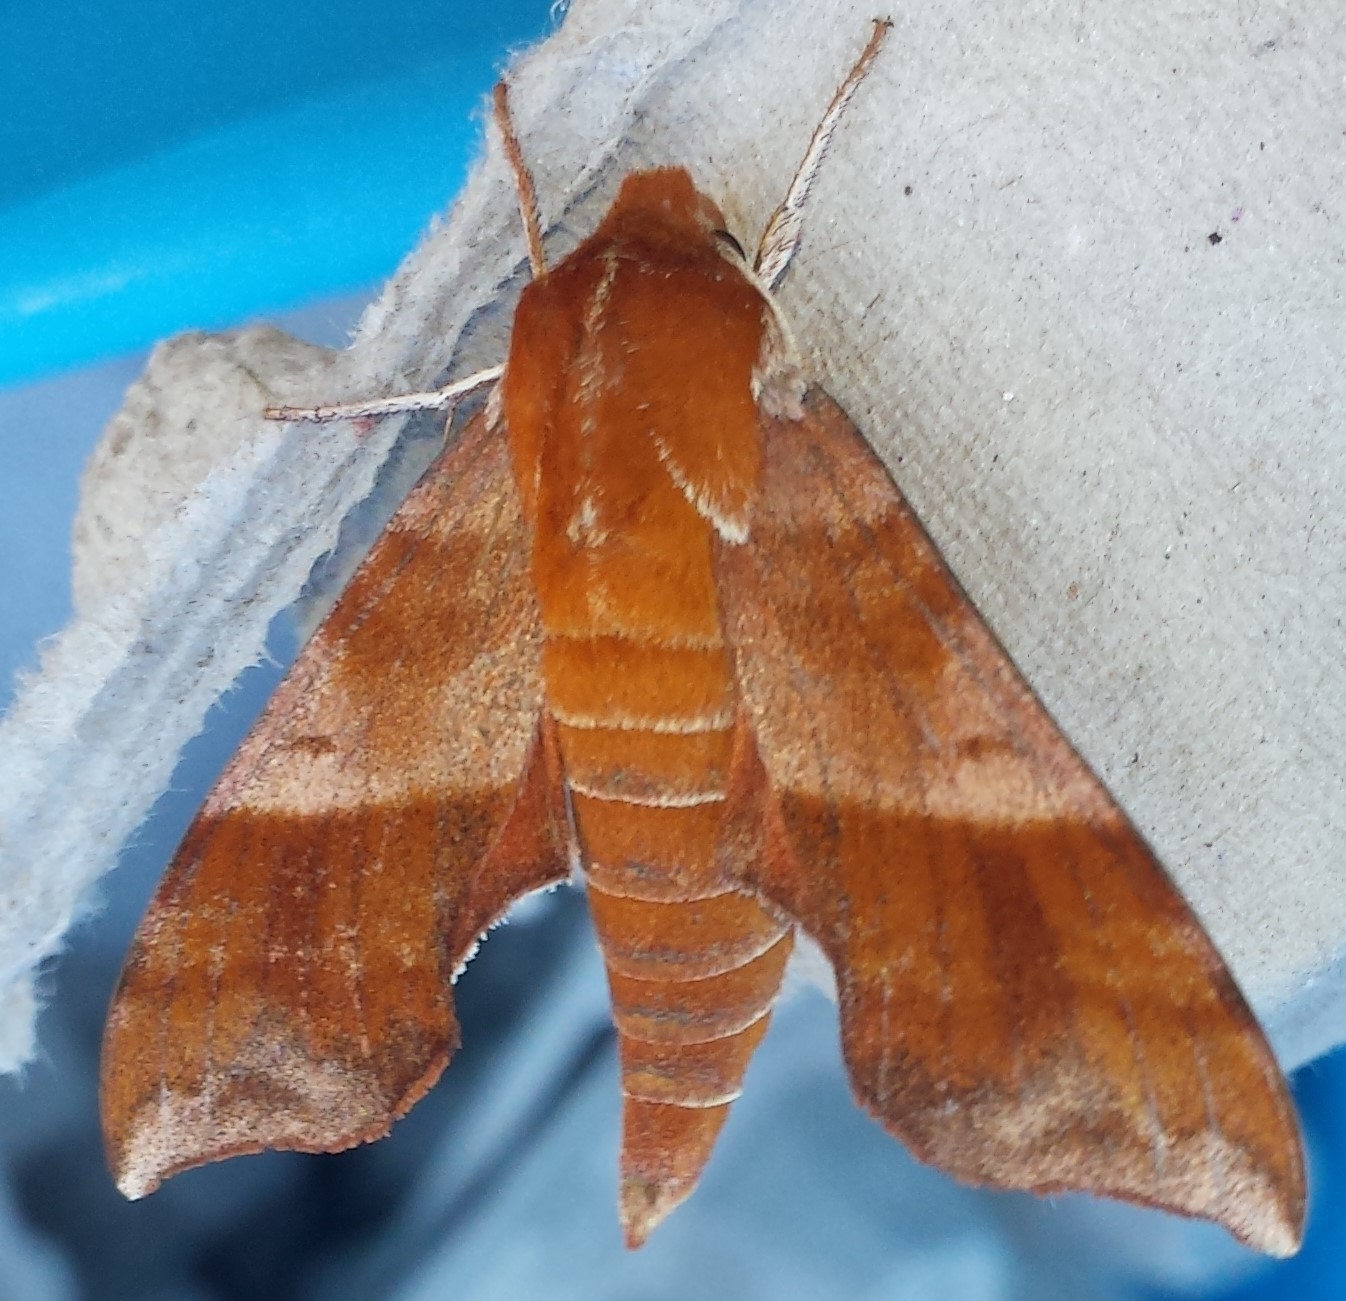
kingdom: Animalia
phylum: Arthropoda
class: Insecta
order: Lepidoptera
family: Sphingidae
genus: Darapsa
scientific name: Darapsa choerilus
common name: Azalea sphinx
